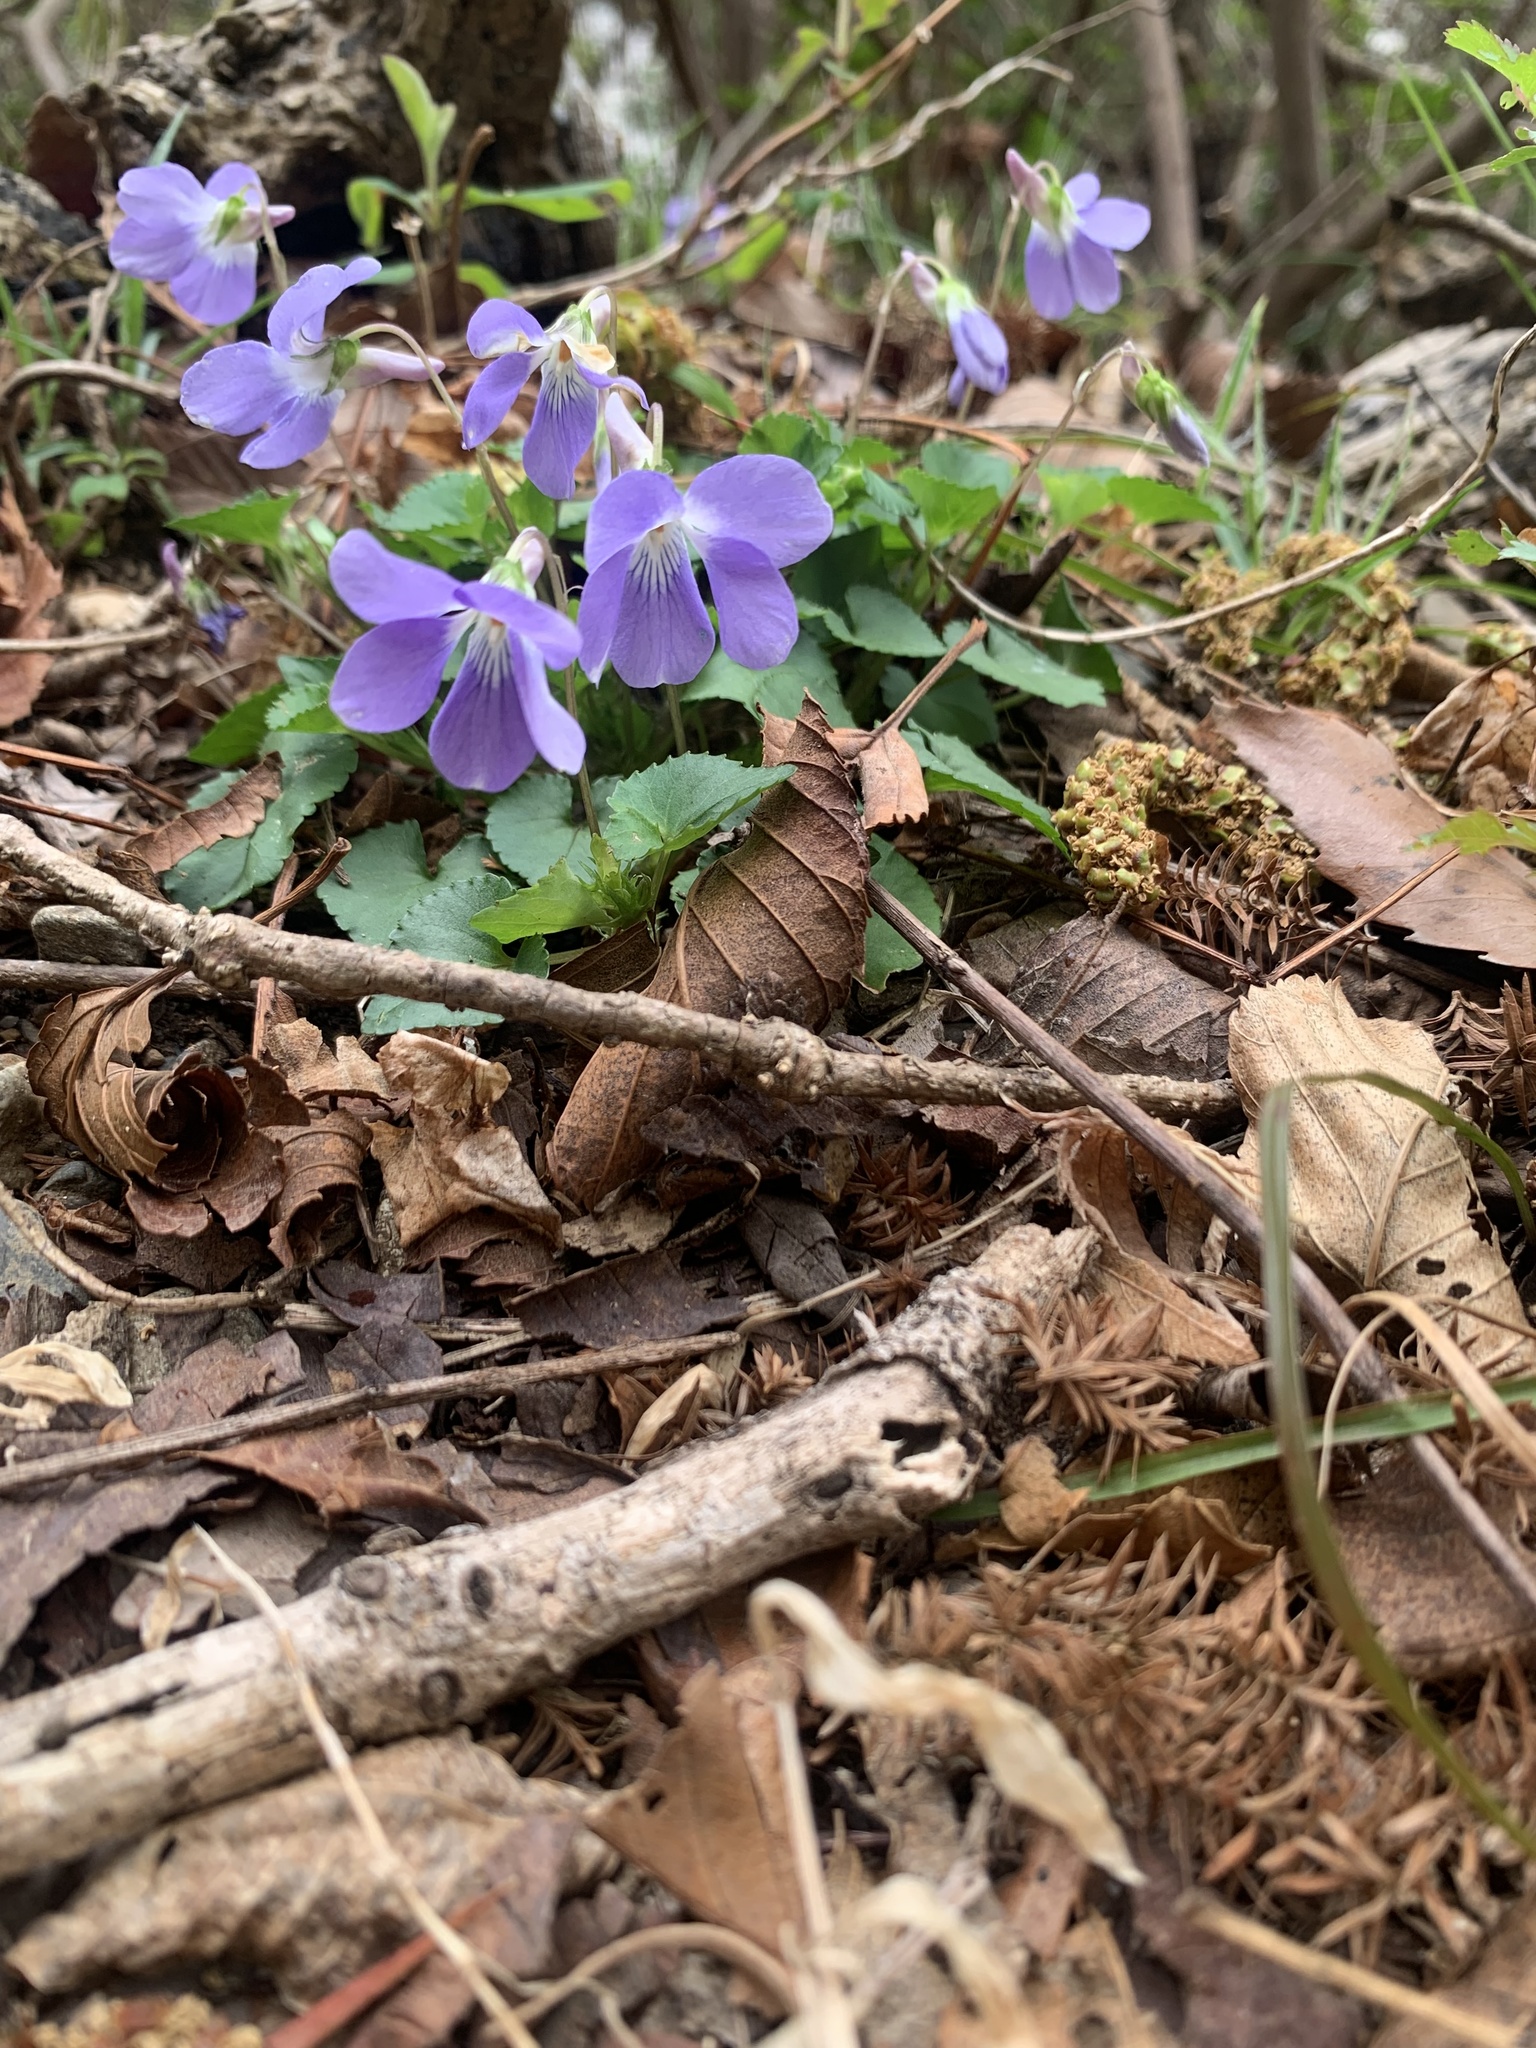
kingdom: Plantae
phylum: Tracheophyta
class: Magnoliopsida
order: Malpighiales
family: Violaceae
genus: Viola
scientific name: Viola grypoceras
